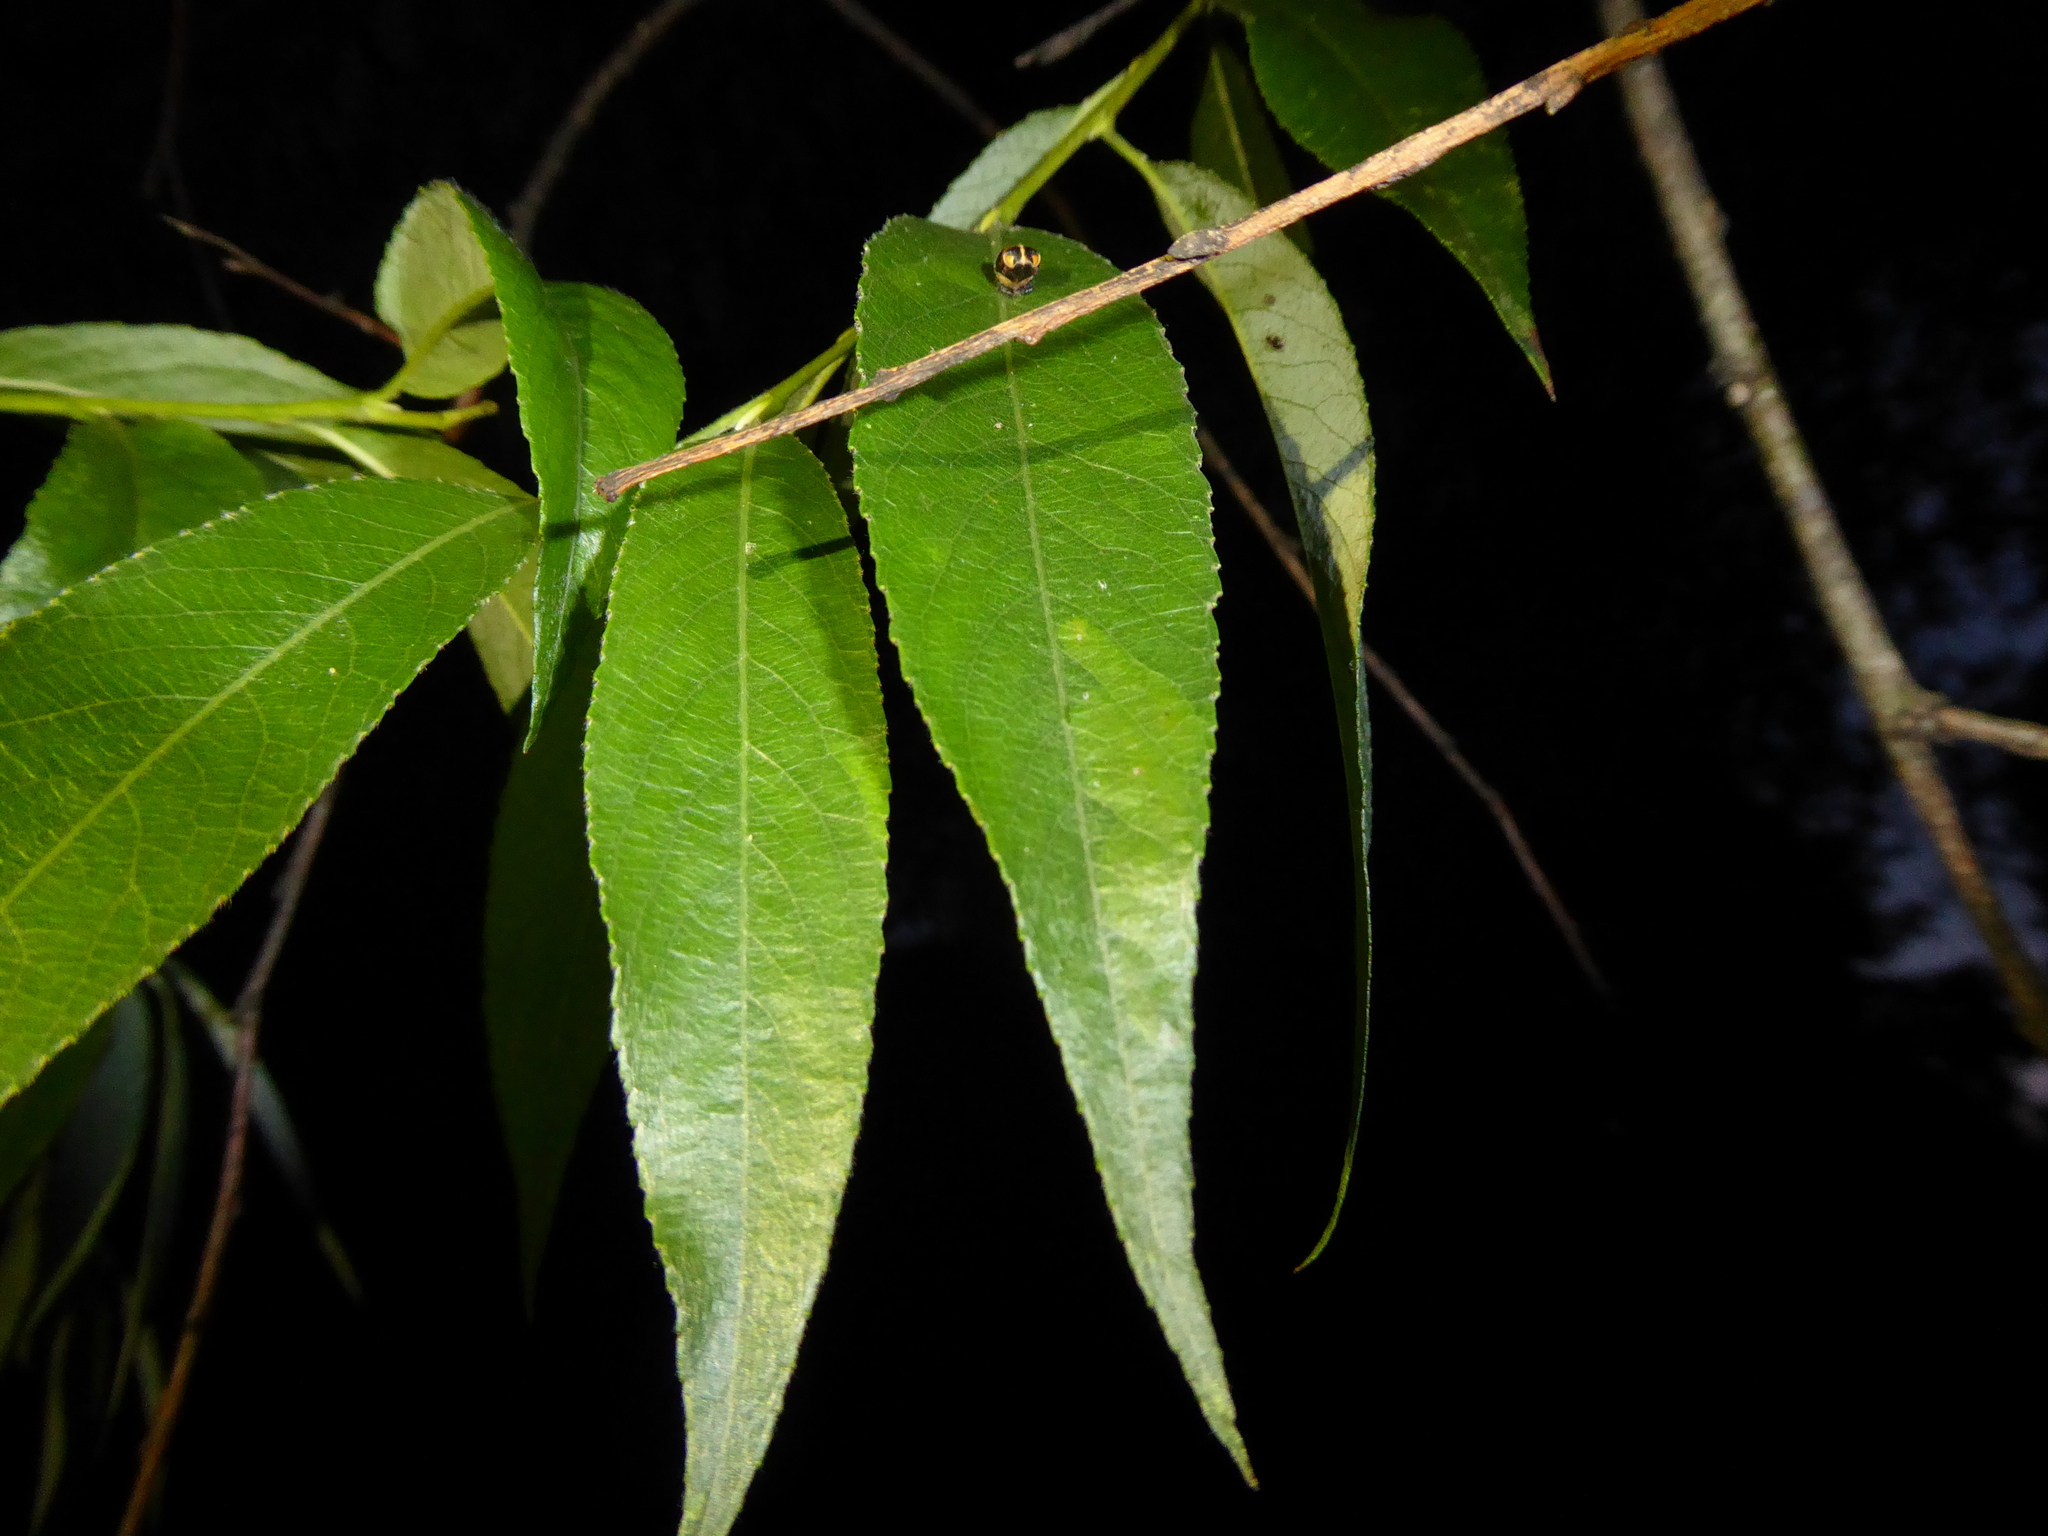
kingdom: Animalia
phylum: Arthropoda
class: Insecta
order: Diptera
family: Agromyzidae
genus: Aulagromyza
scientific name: Aulagromyza tridentata
